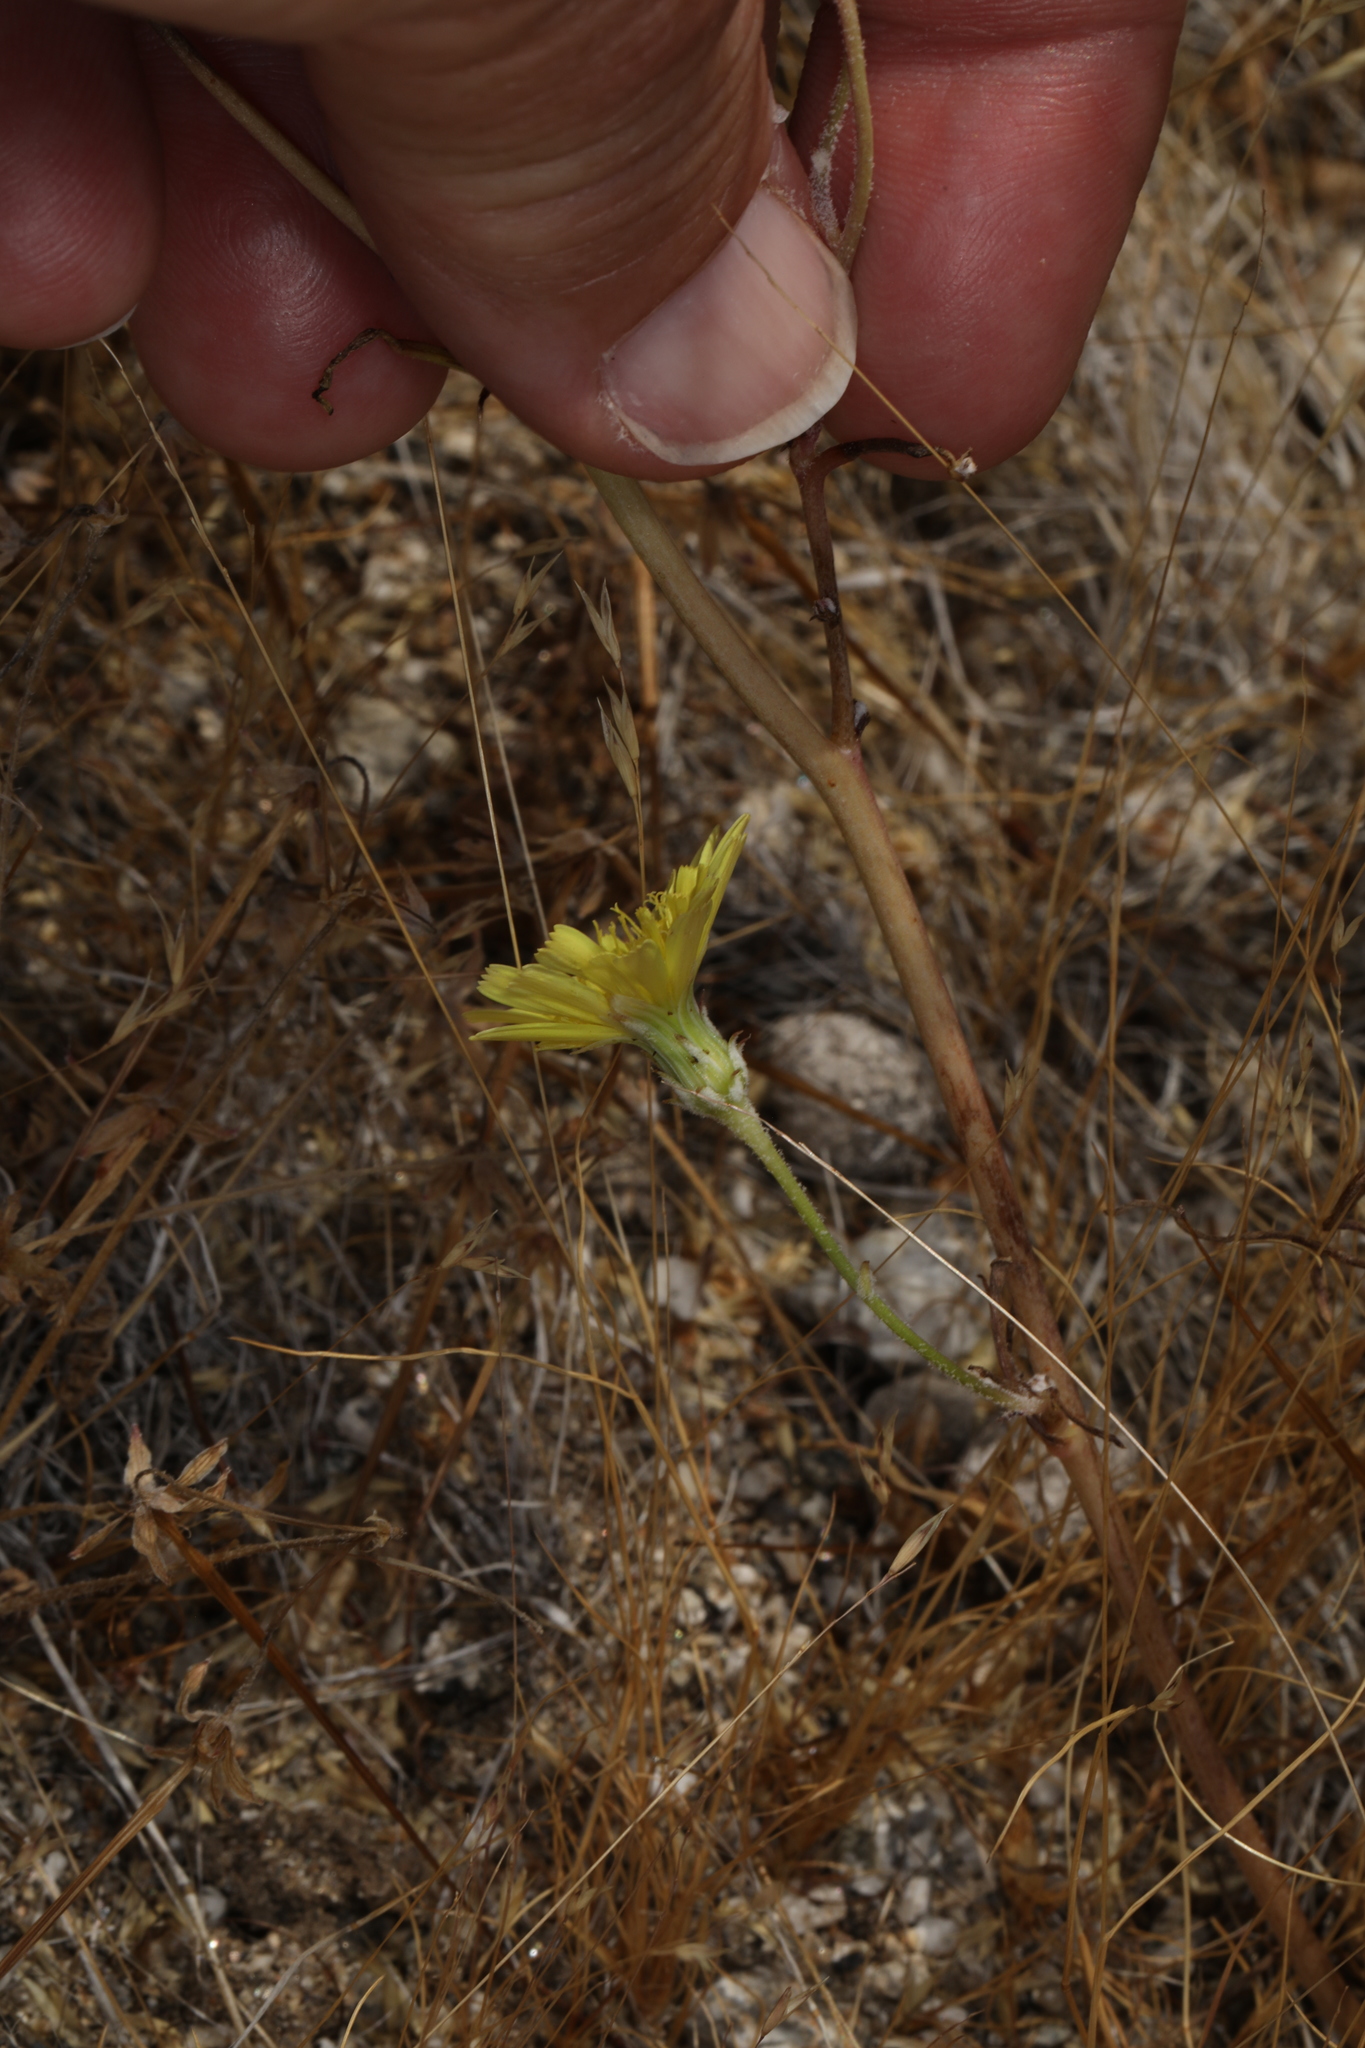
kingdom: Plantae
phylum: Tracheophyta
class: Magnoliopsida
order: Asterales
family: Asteraceae
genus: Malacothrix
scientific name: Malacothrix glabrata
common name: Smooth desert-dandelion
